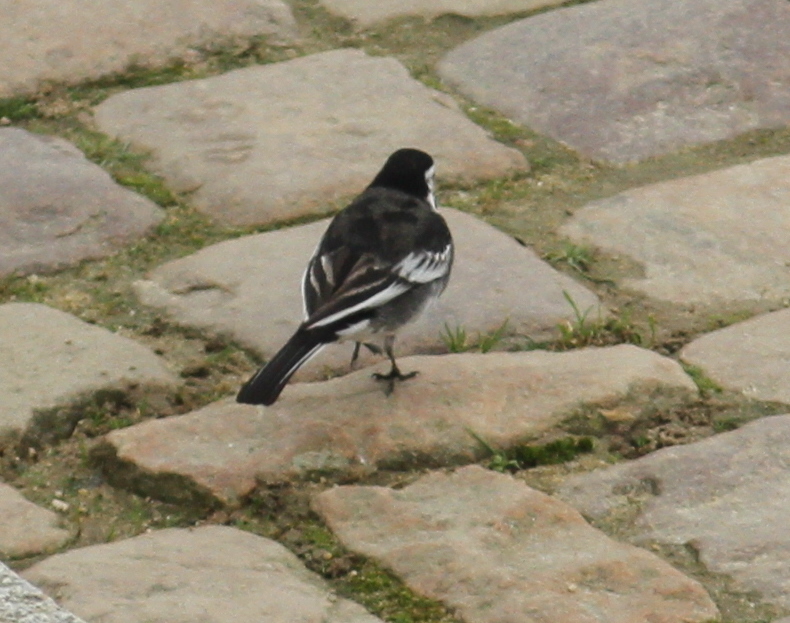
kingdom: Animalia
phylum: Chordata
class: Aves
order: Passeriformes
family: Motacillidae
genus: Motacilla
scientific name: Motacilla alba
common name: White wagtail
